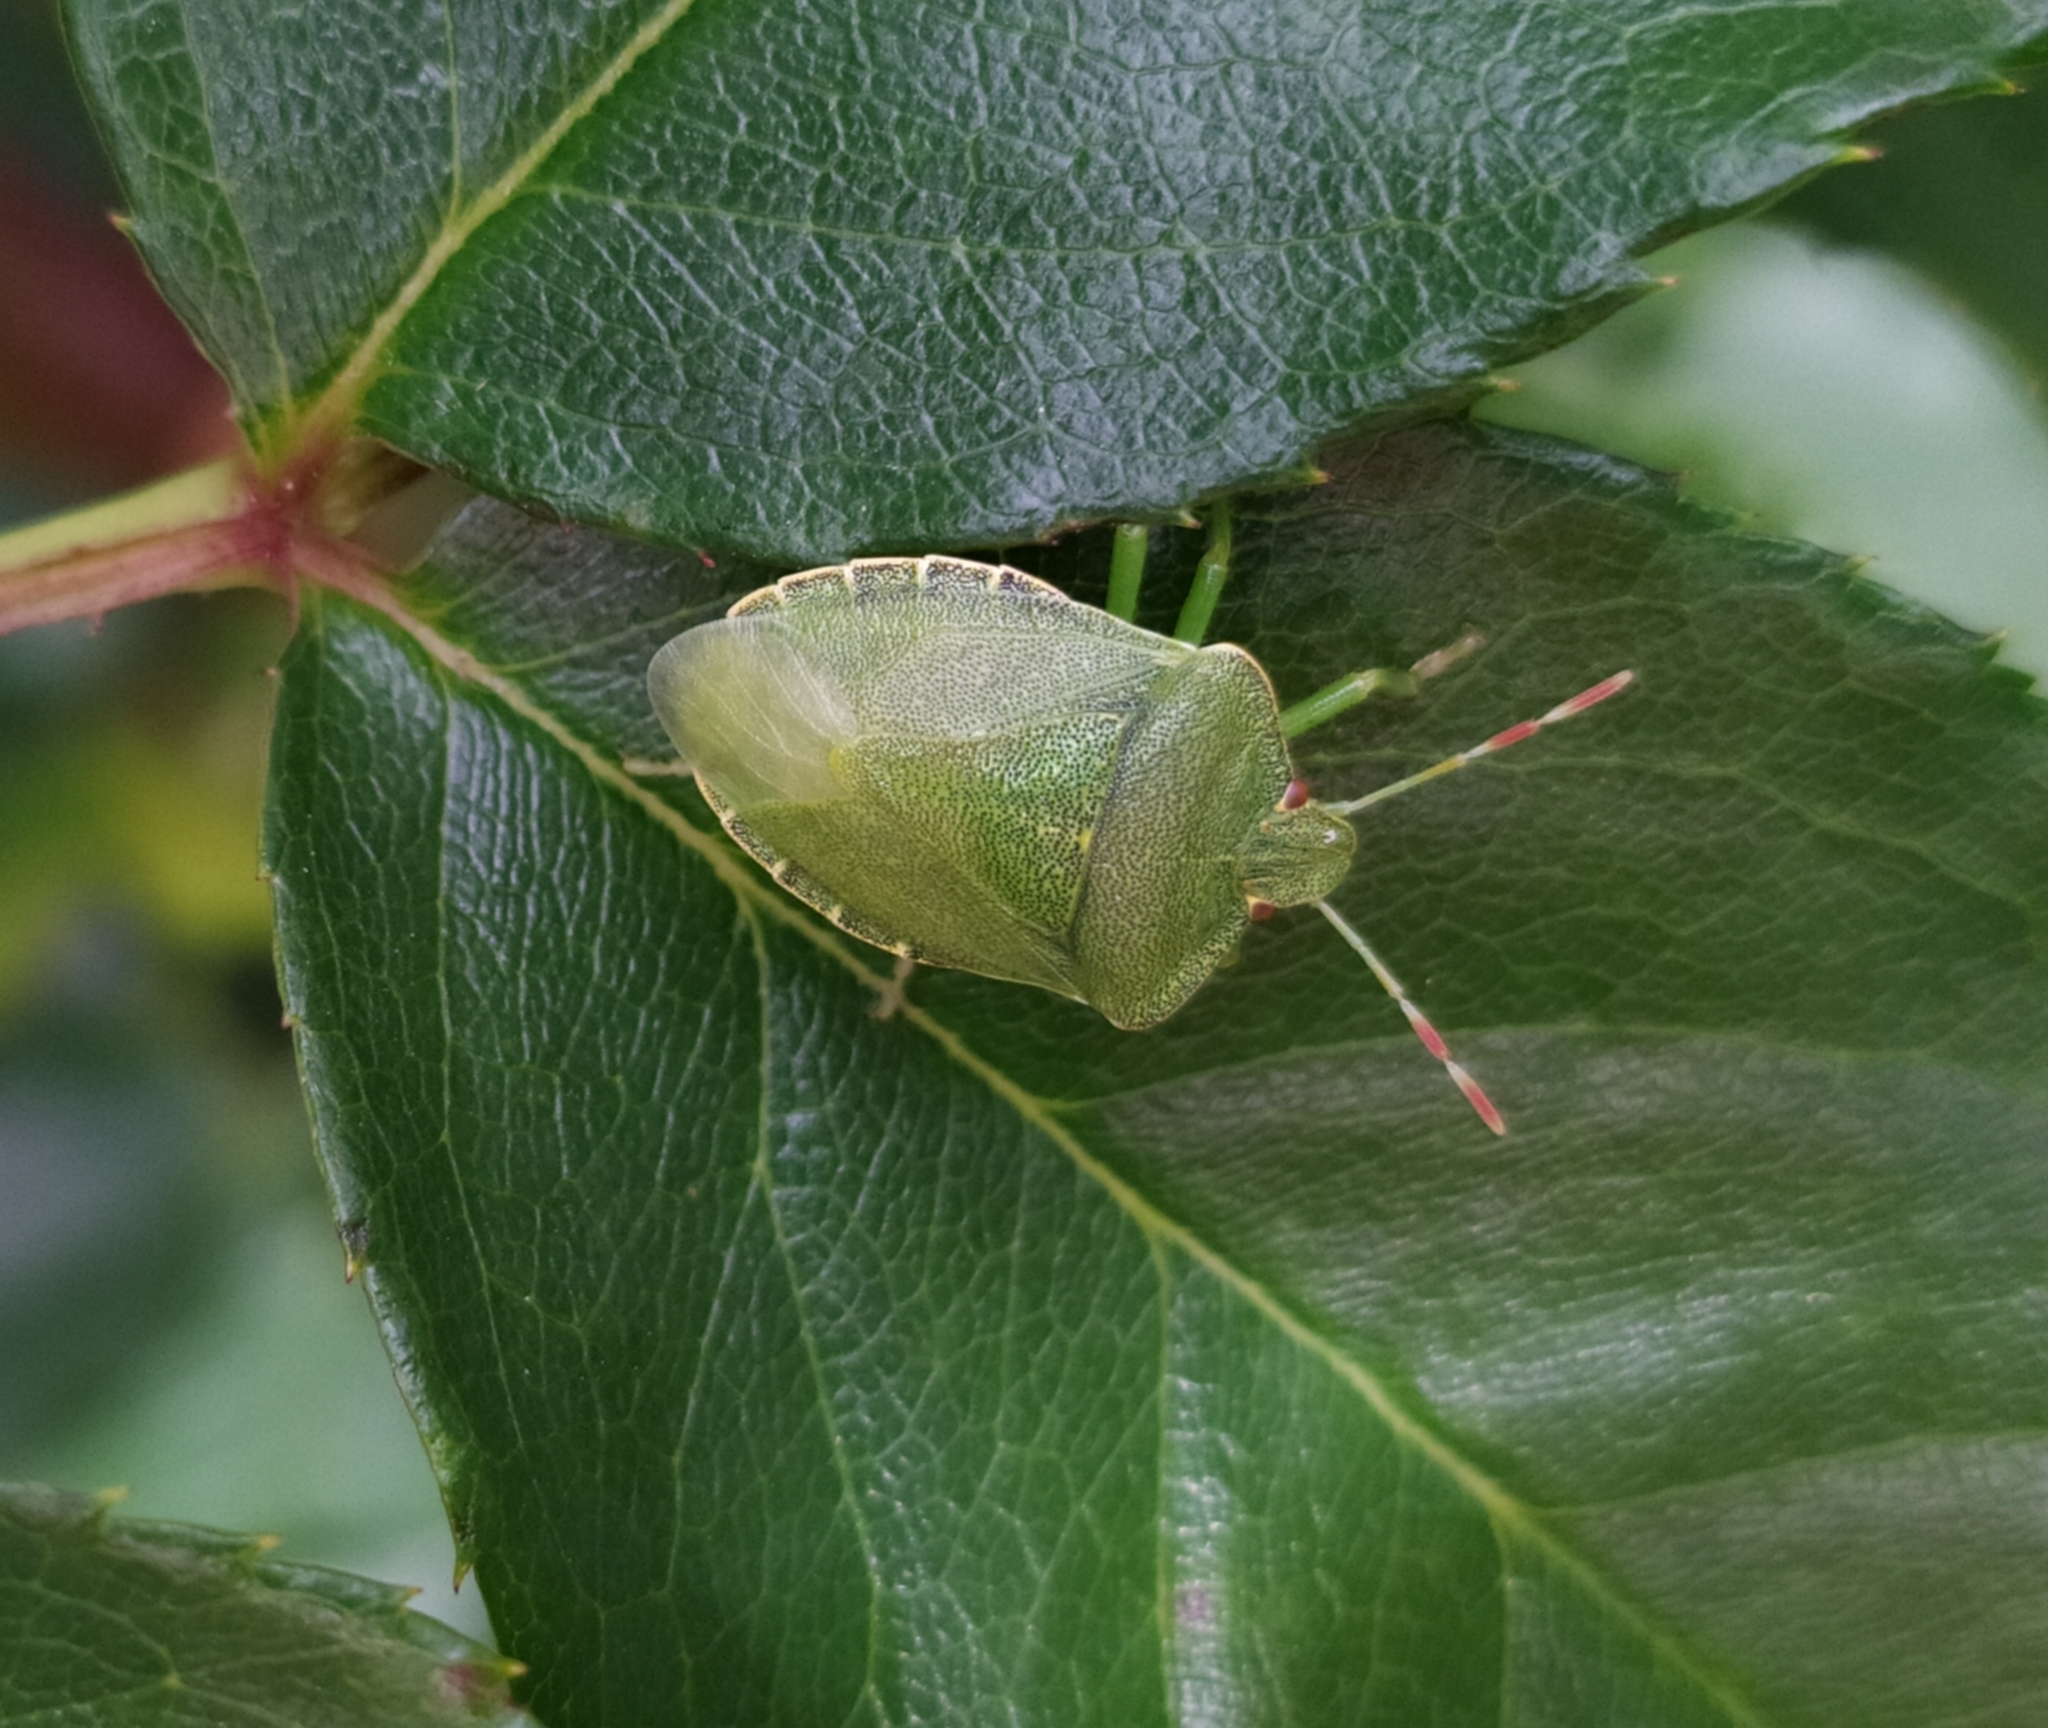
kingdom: Animalia
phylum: Arthropoda
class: Insecta
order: Hemiptera
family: Pentatomidae
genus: Palomena
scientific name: Palomena prasina
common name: Green shieldbug
